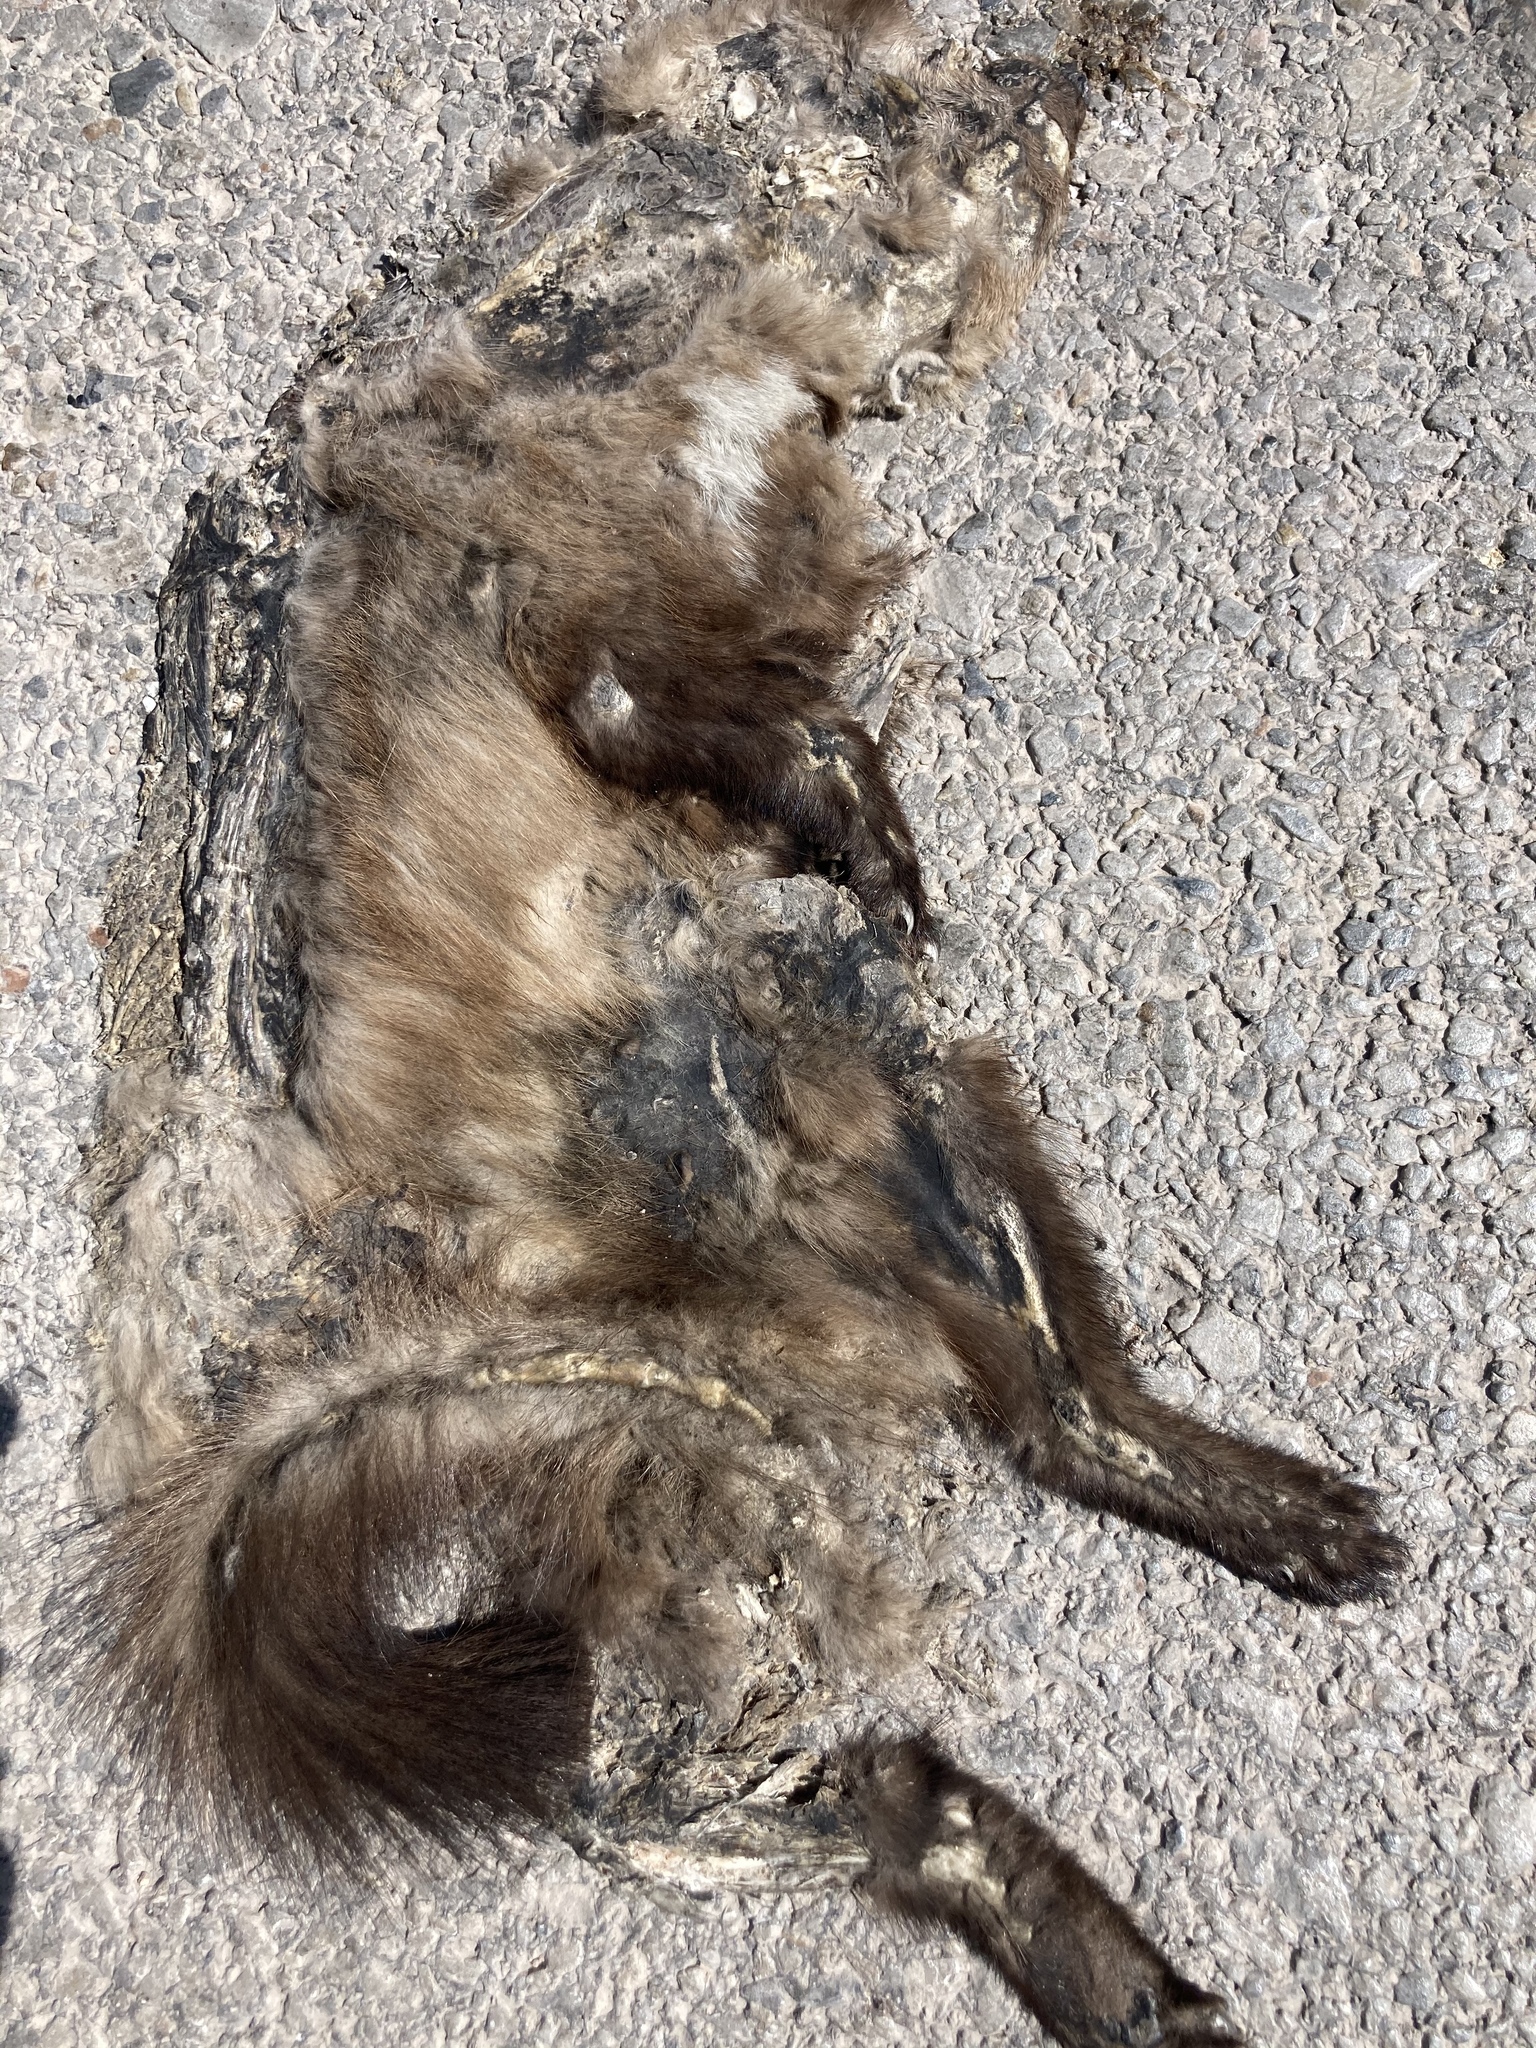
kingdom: Animalia
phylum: Chordata
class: Mammalia
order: Carnivora
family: Mustelidae
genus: Martes
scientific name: Martes foina
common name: Beech marten
